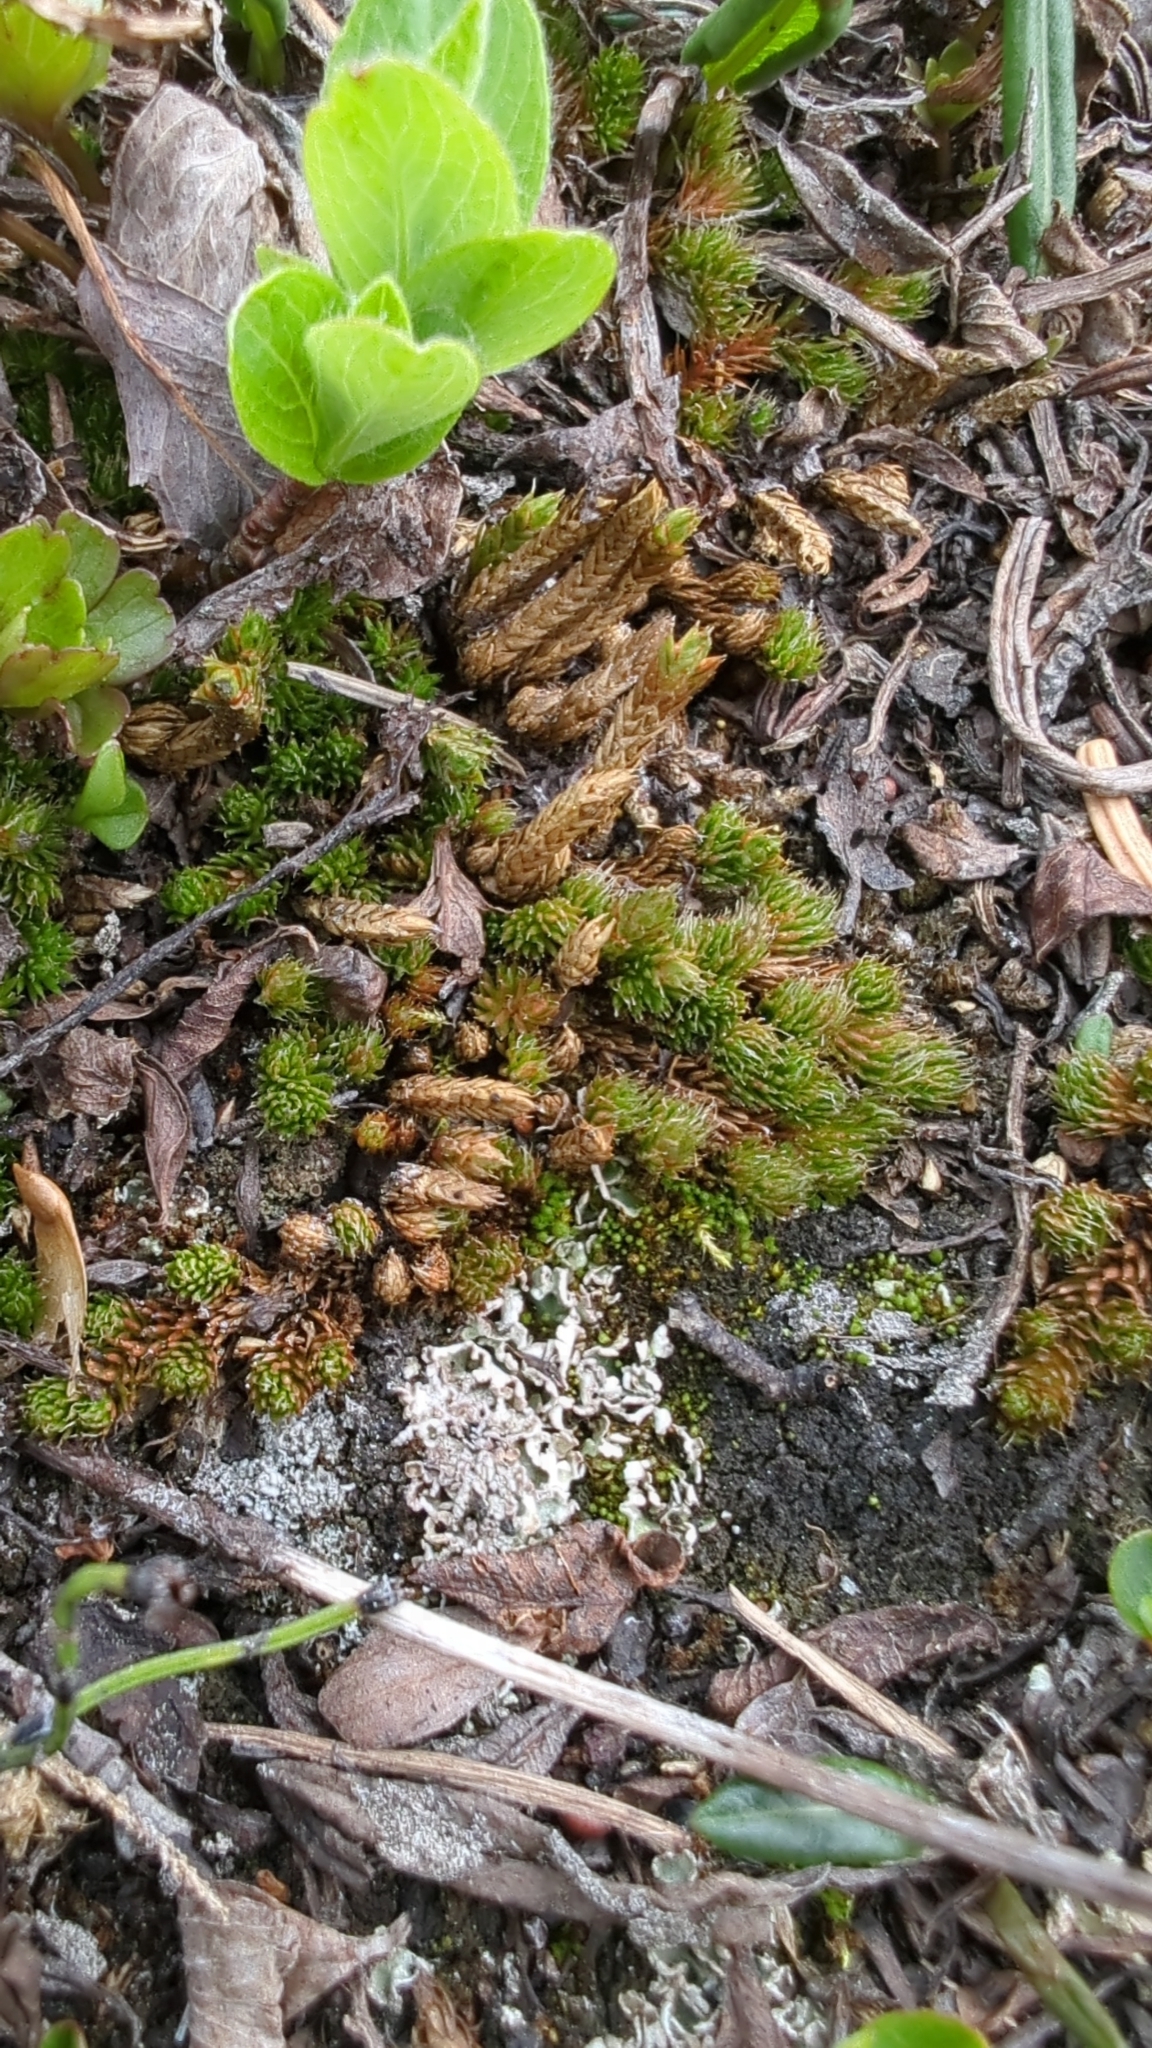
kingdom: Plantae
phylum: Tracheophyta
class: Lycopodiopsida
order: Selaginellales
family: Selaginellaceae
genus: Selaginella
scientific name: Selaginella densa
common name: Mountain spike-moss
